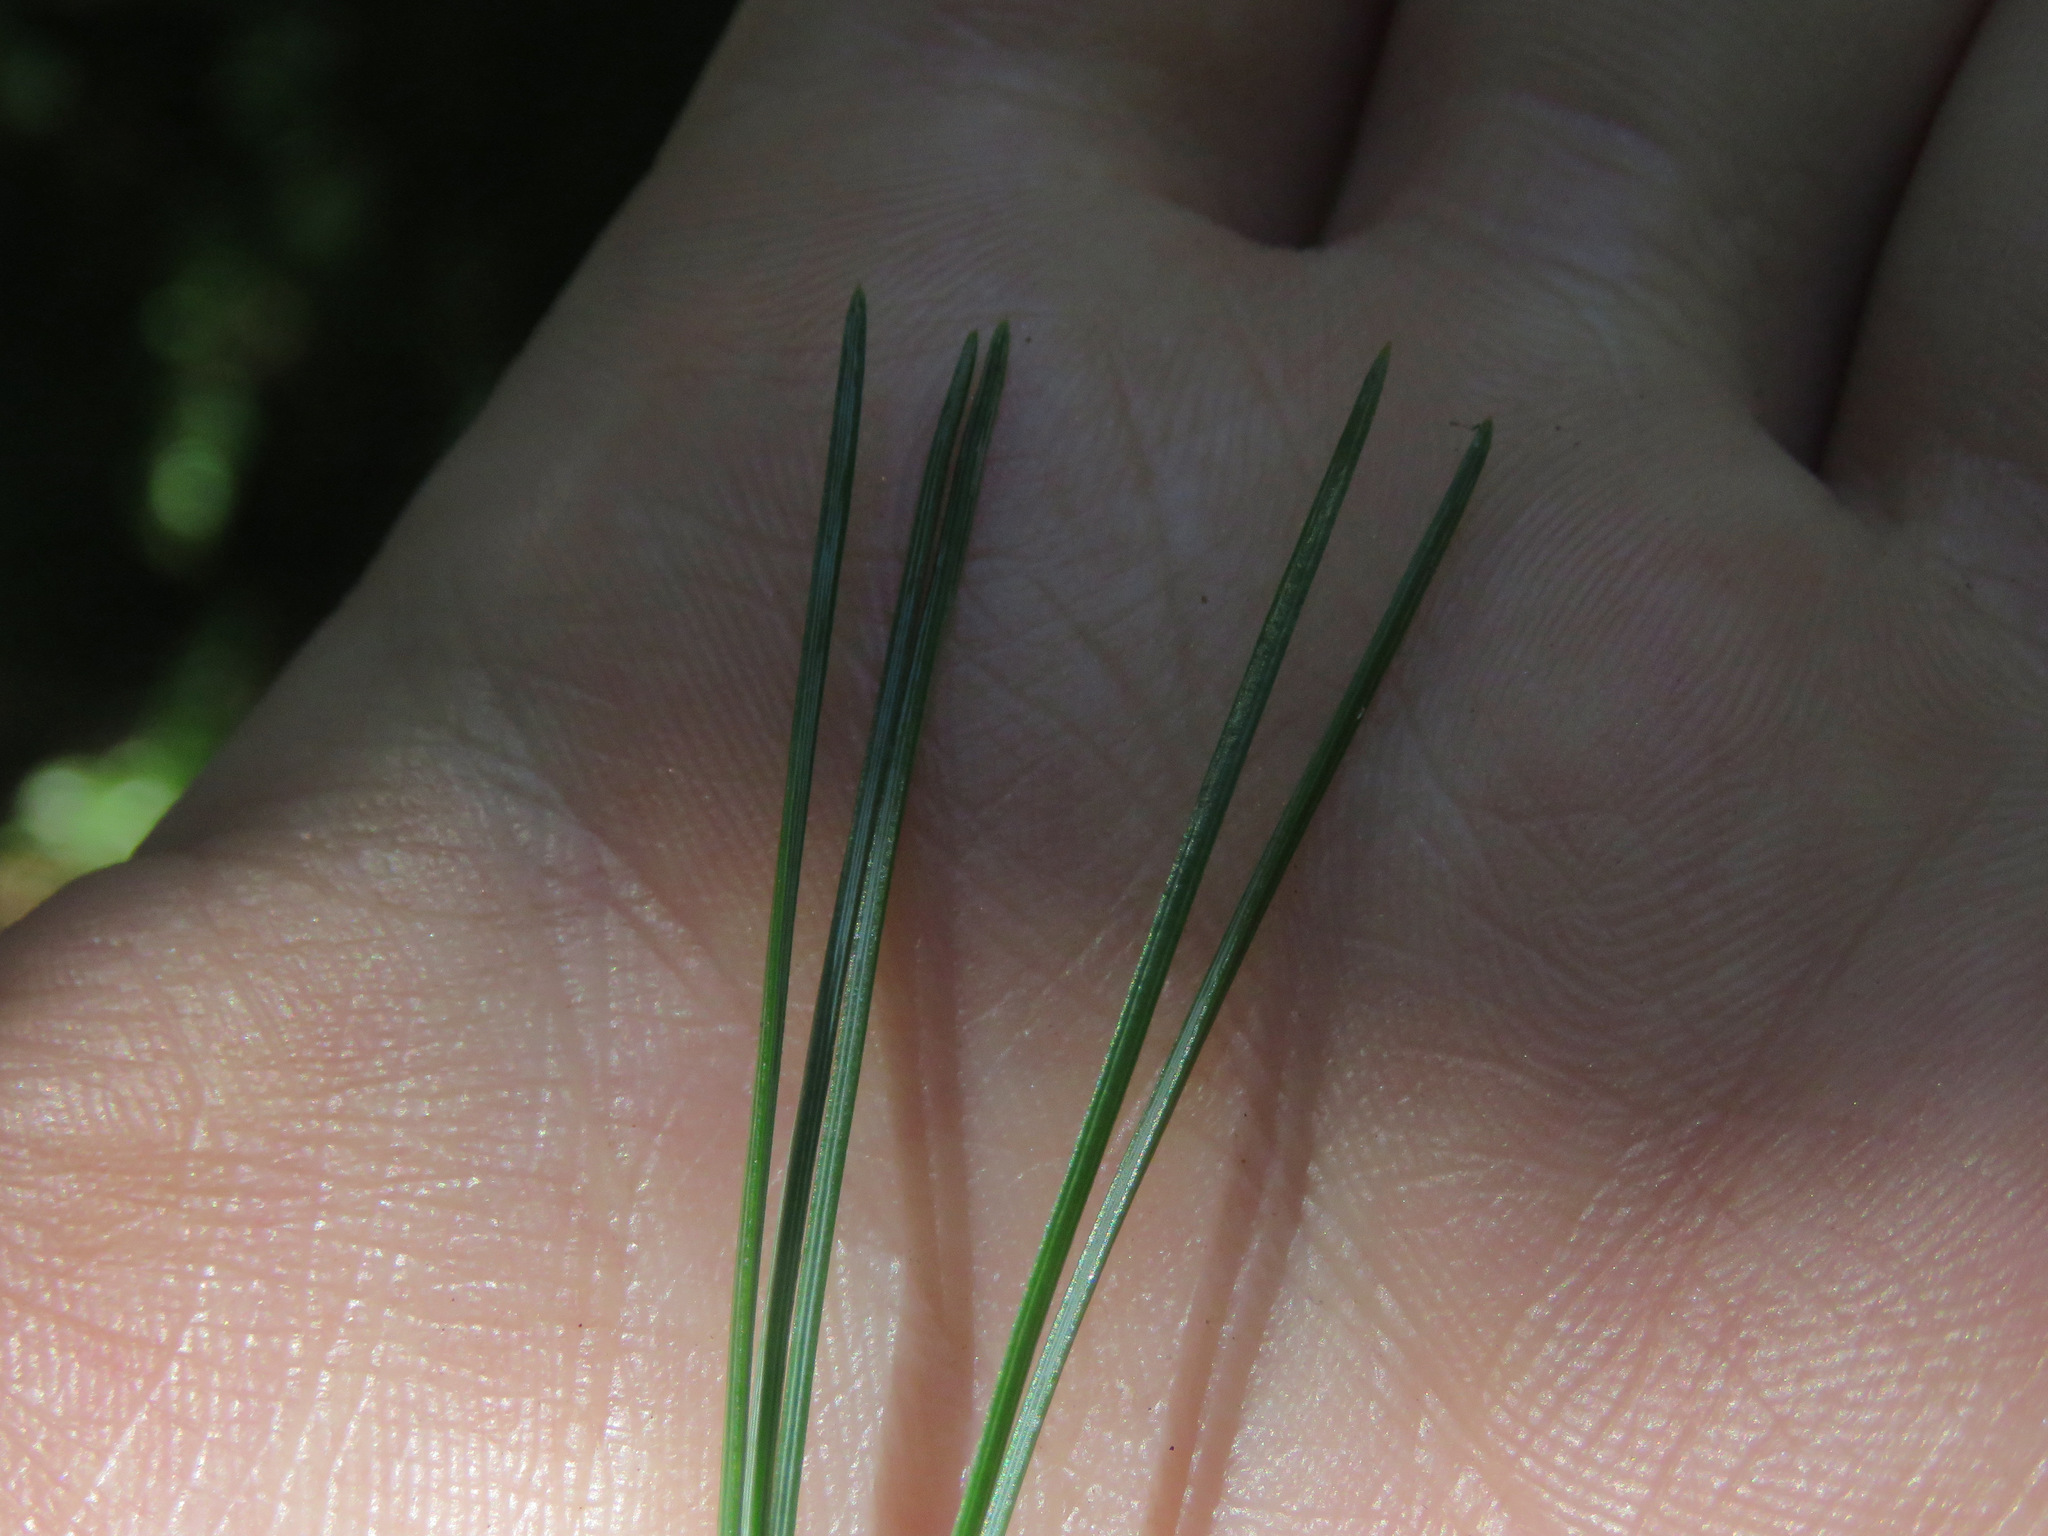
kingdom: Plantae
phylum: Tracheophyta
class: Pinopsida
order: Pinales
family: Pinaceae
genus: Pinus
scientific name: Pinus monticola
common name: Western white pine
